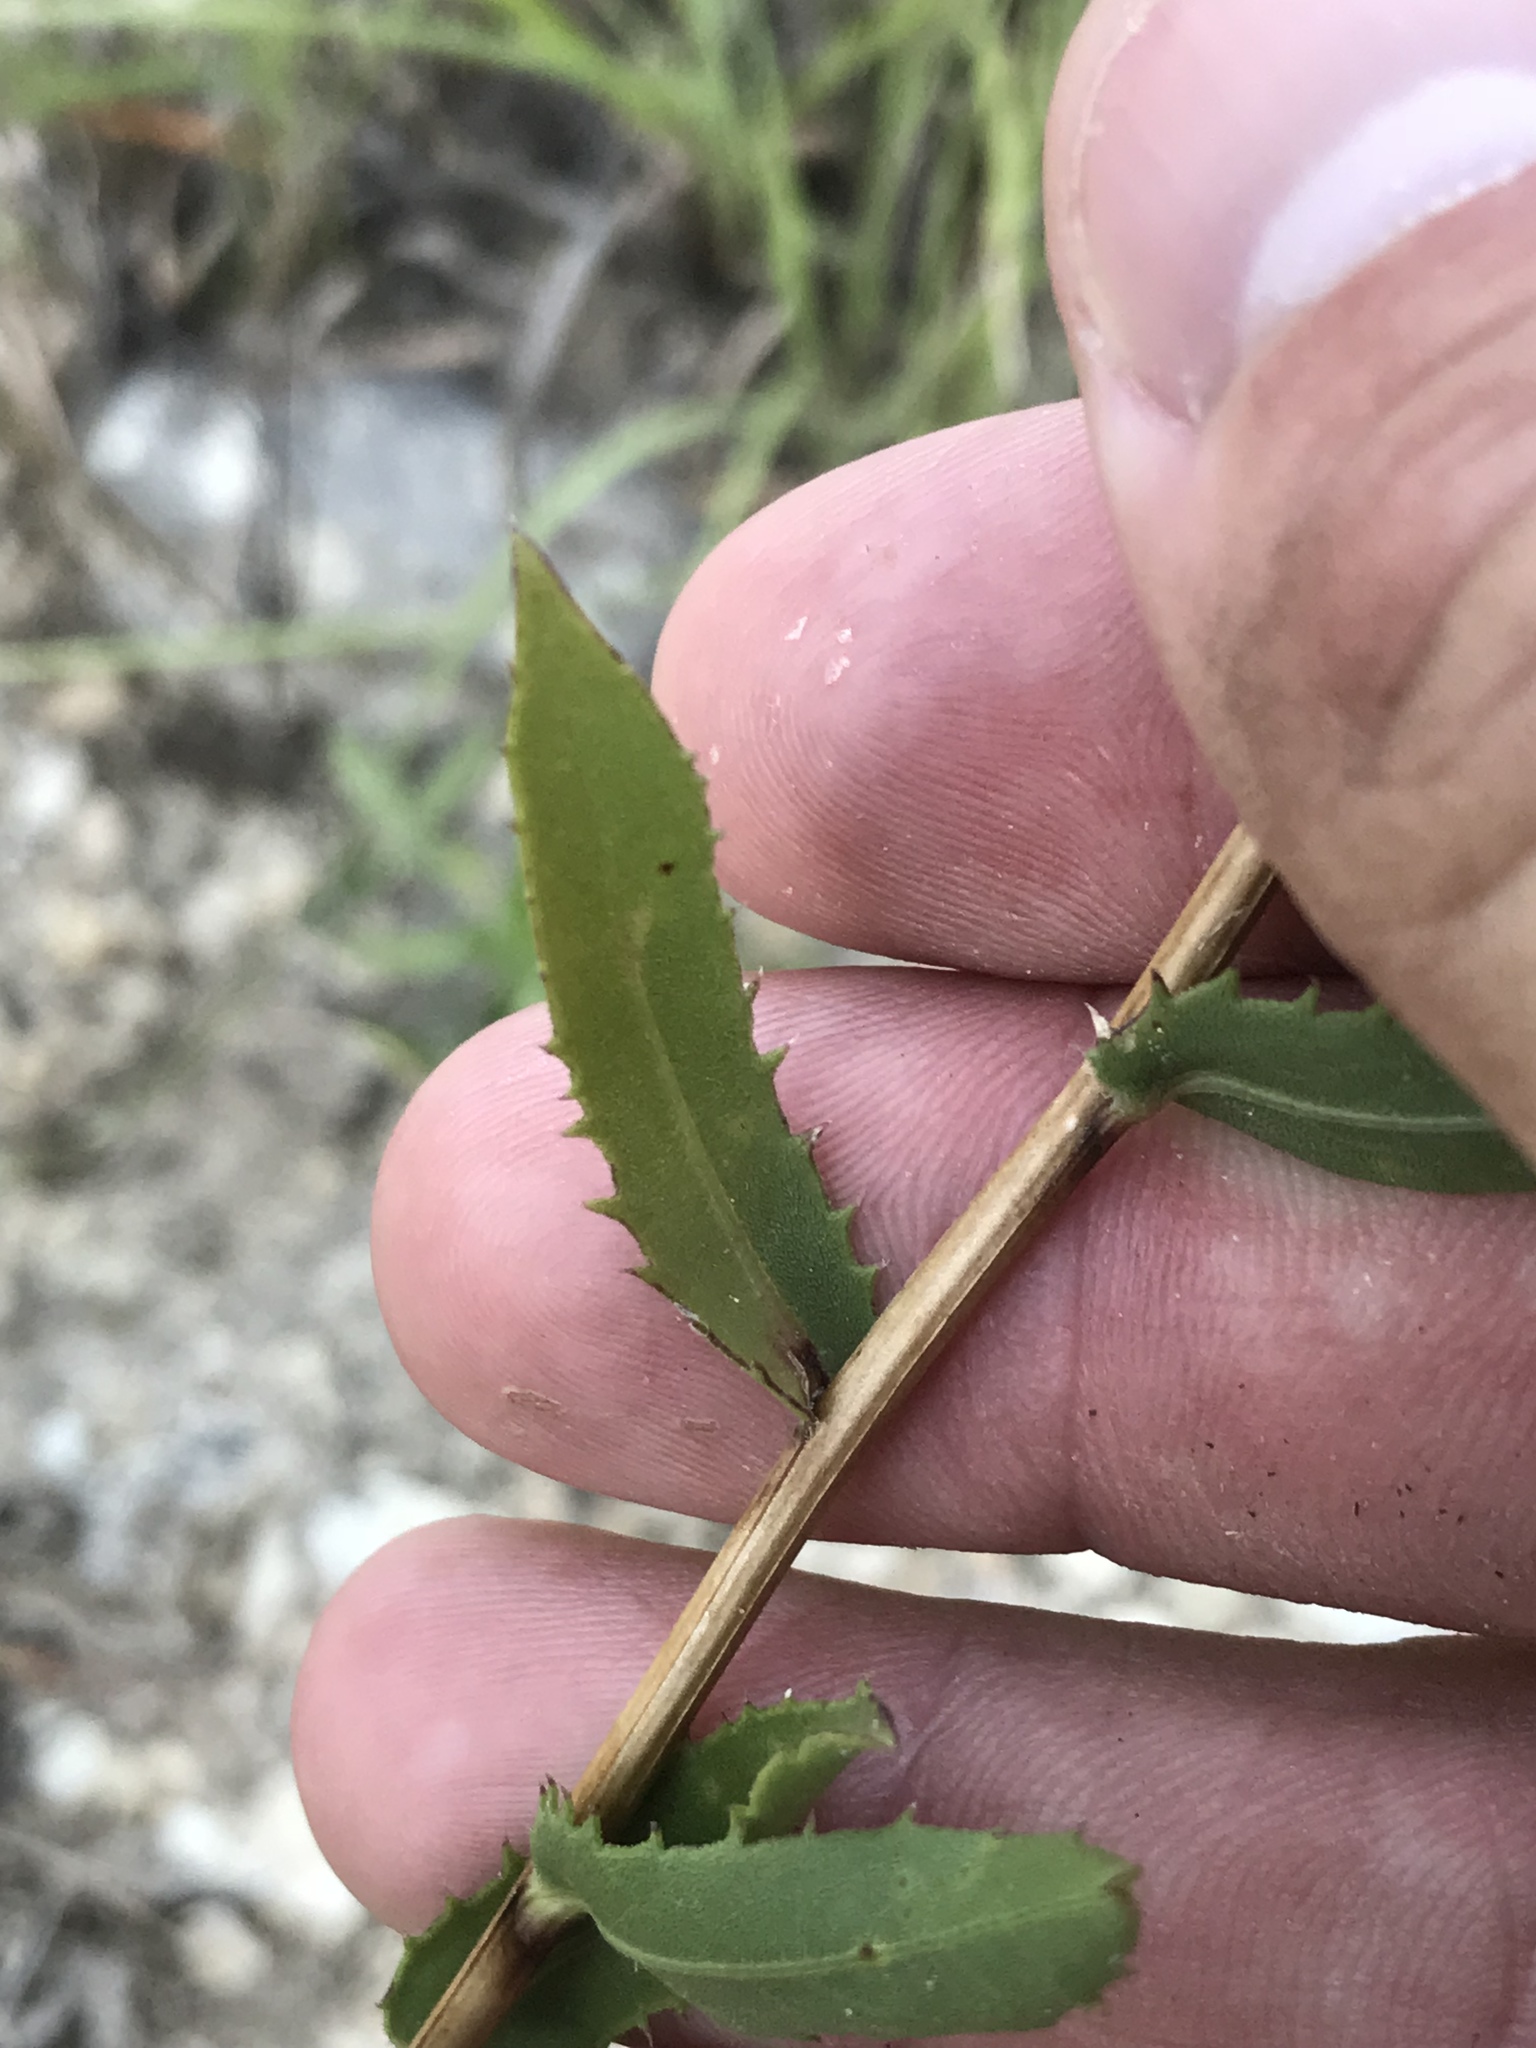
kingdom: Plantae
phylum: Tracheophyta
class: Magnoliopsida
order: Asterales
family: Asteraceae
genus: Grindelia
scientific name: Grindelia lanceolata
